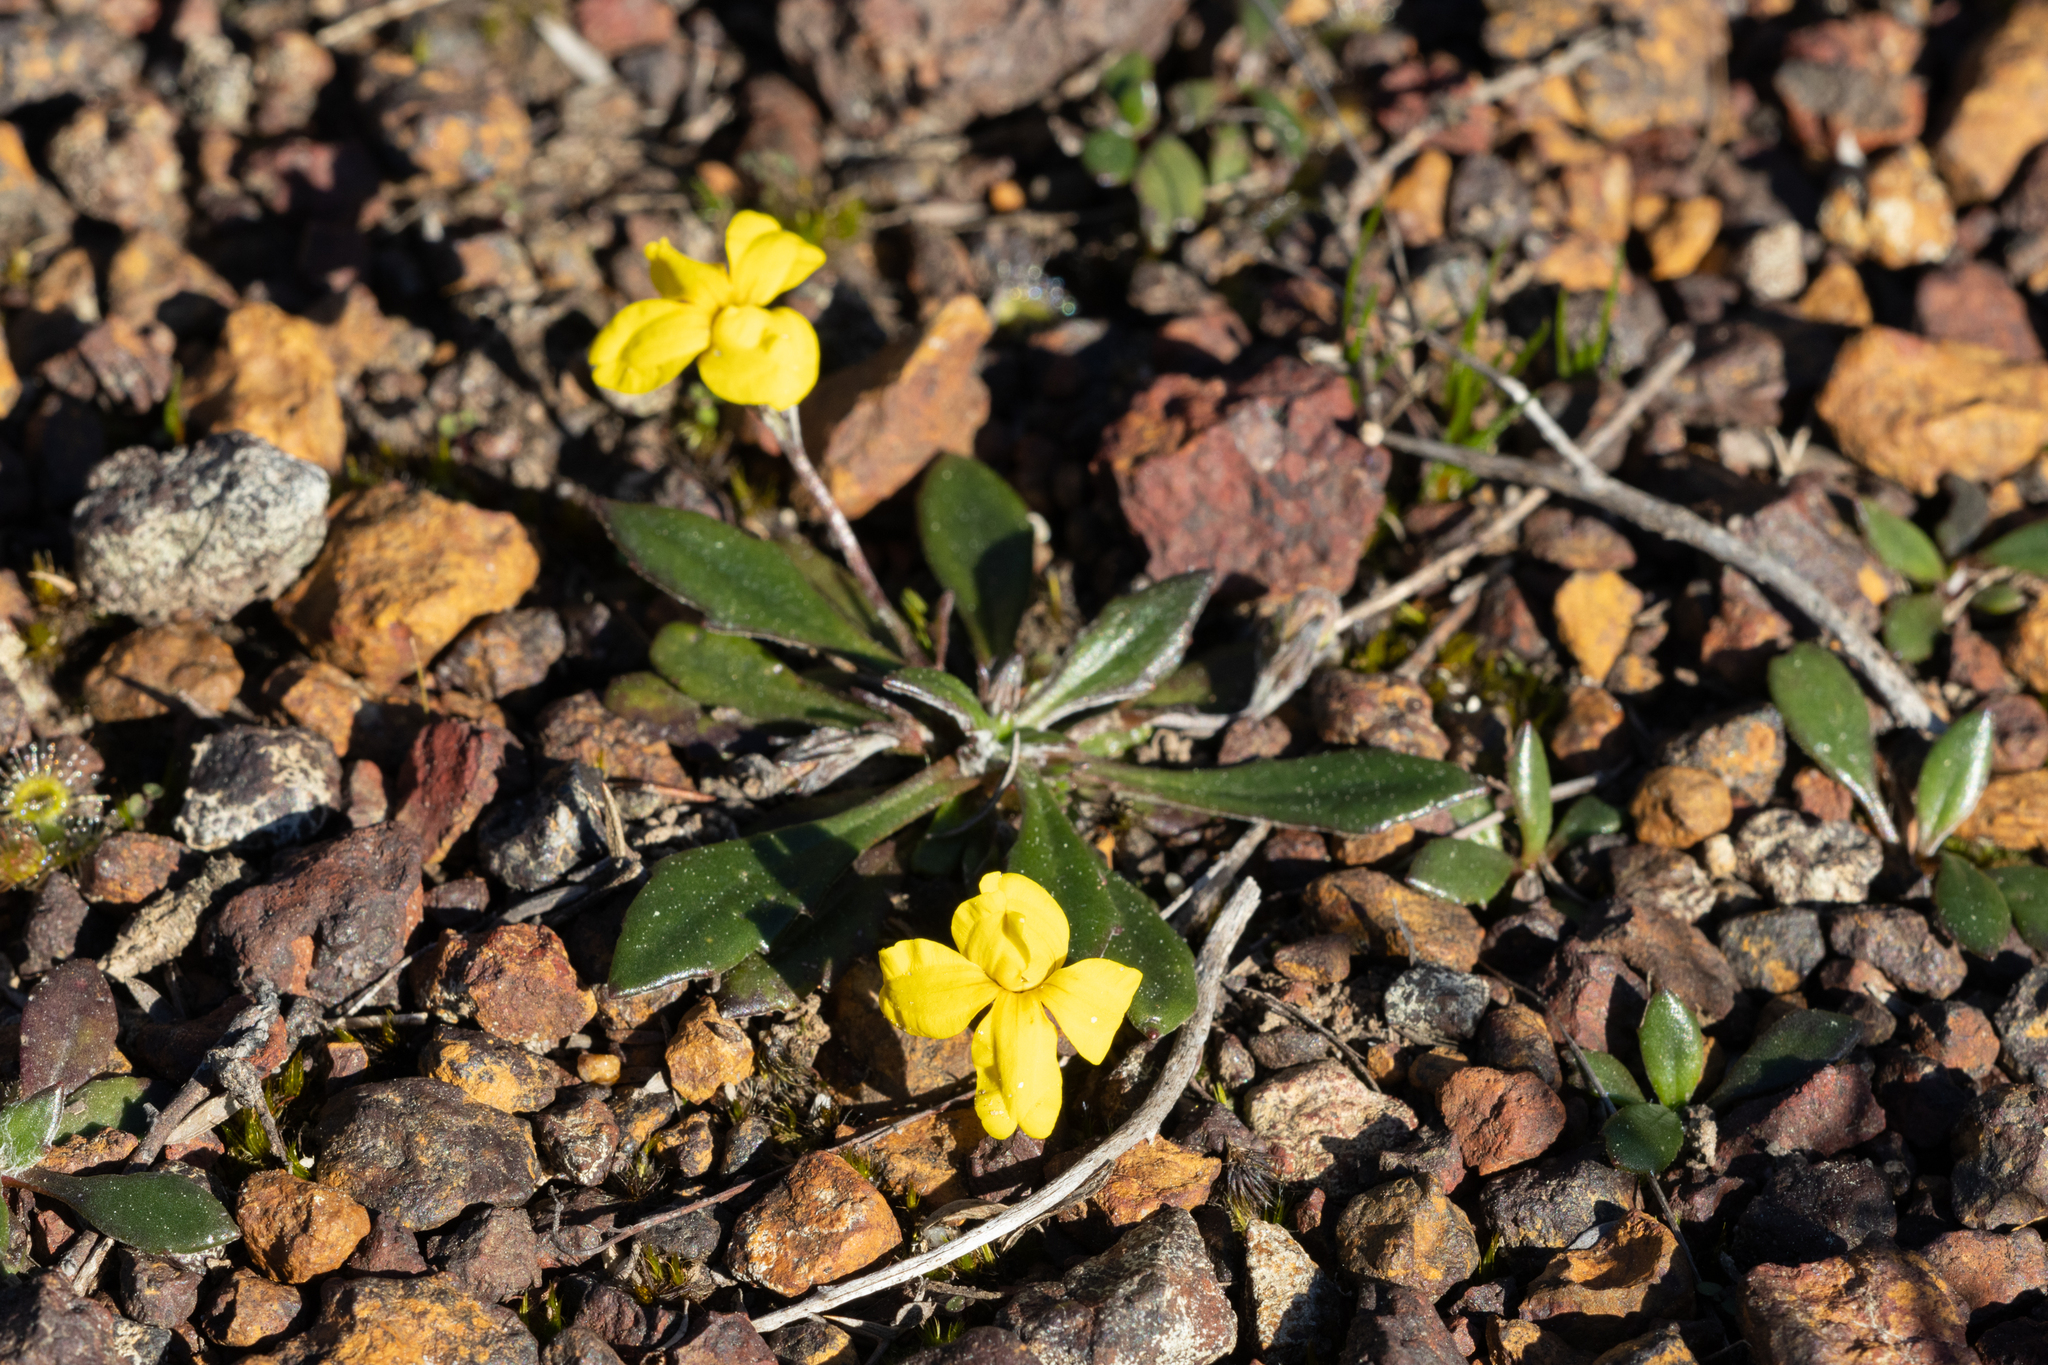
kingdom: Plantae
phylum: Tracheophyta
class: Magnoliopsida
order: Asterales
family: Goodeniaceae
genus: Goodenia
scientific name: Goodenia blackiana
